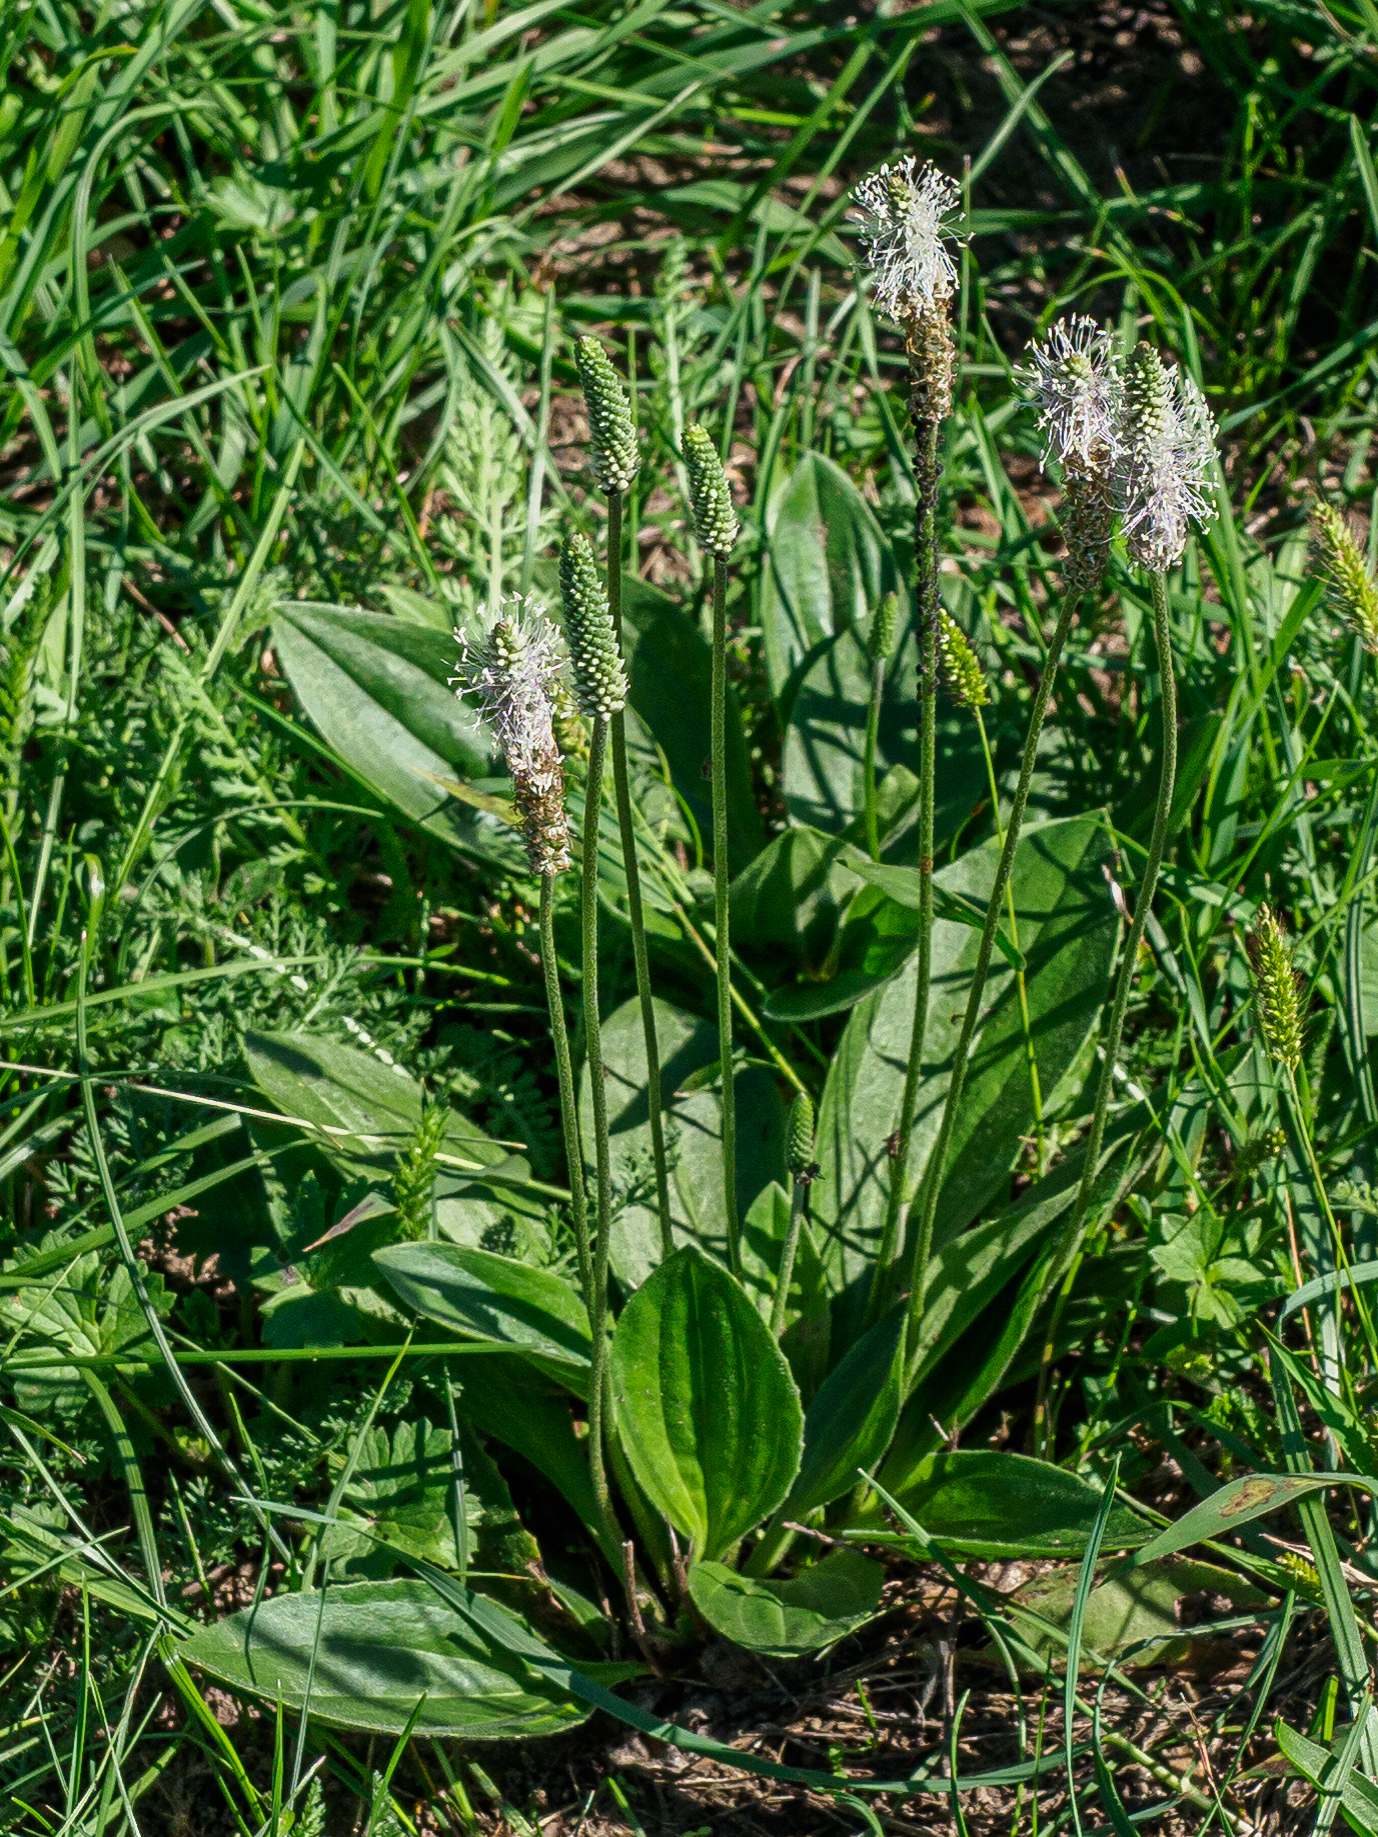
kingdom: Plantae
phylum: Tracheophyta
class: Magnoliopsida
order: Lamiales
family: Plantaginaceae
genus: Plantago
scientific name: Plantago media
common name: Hoary plantain
